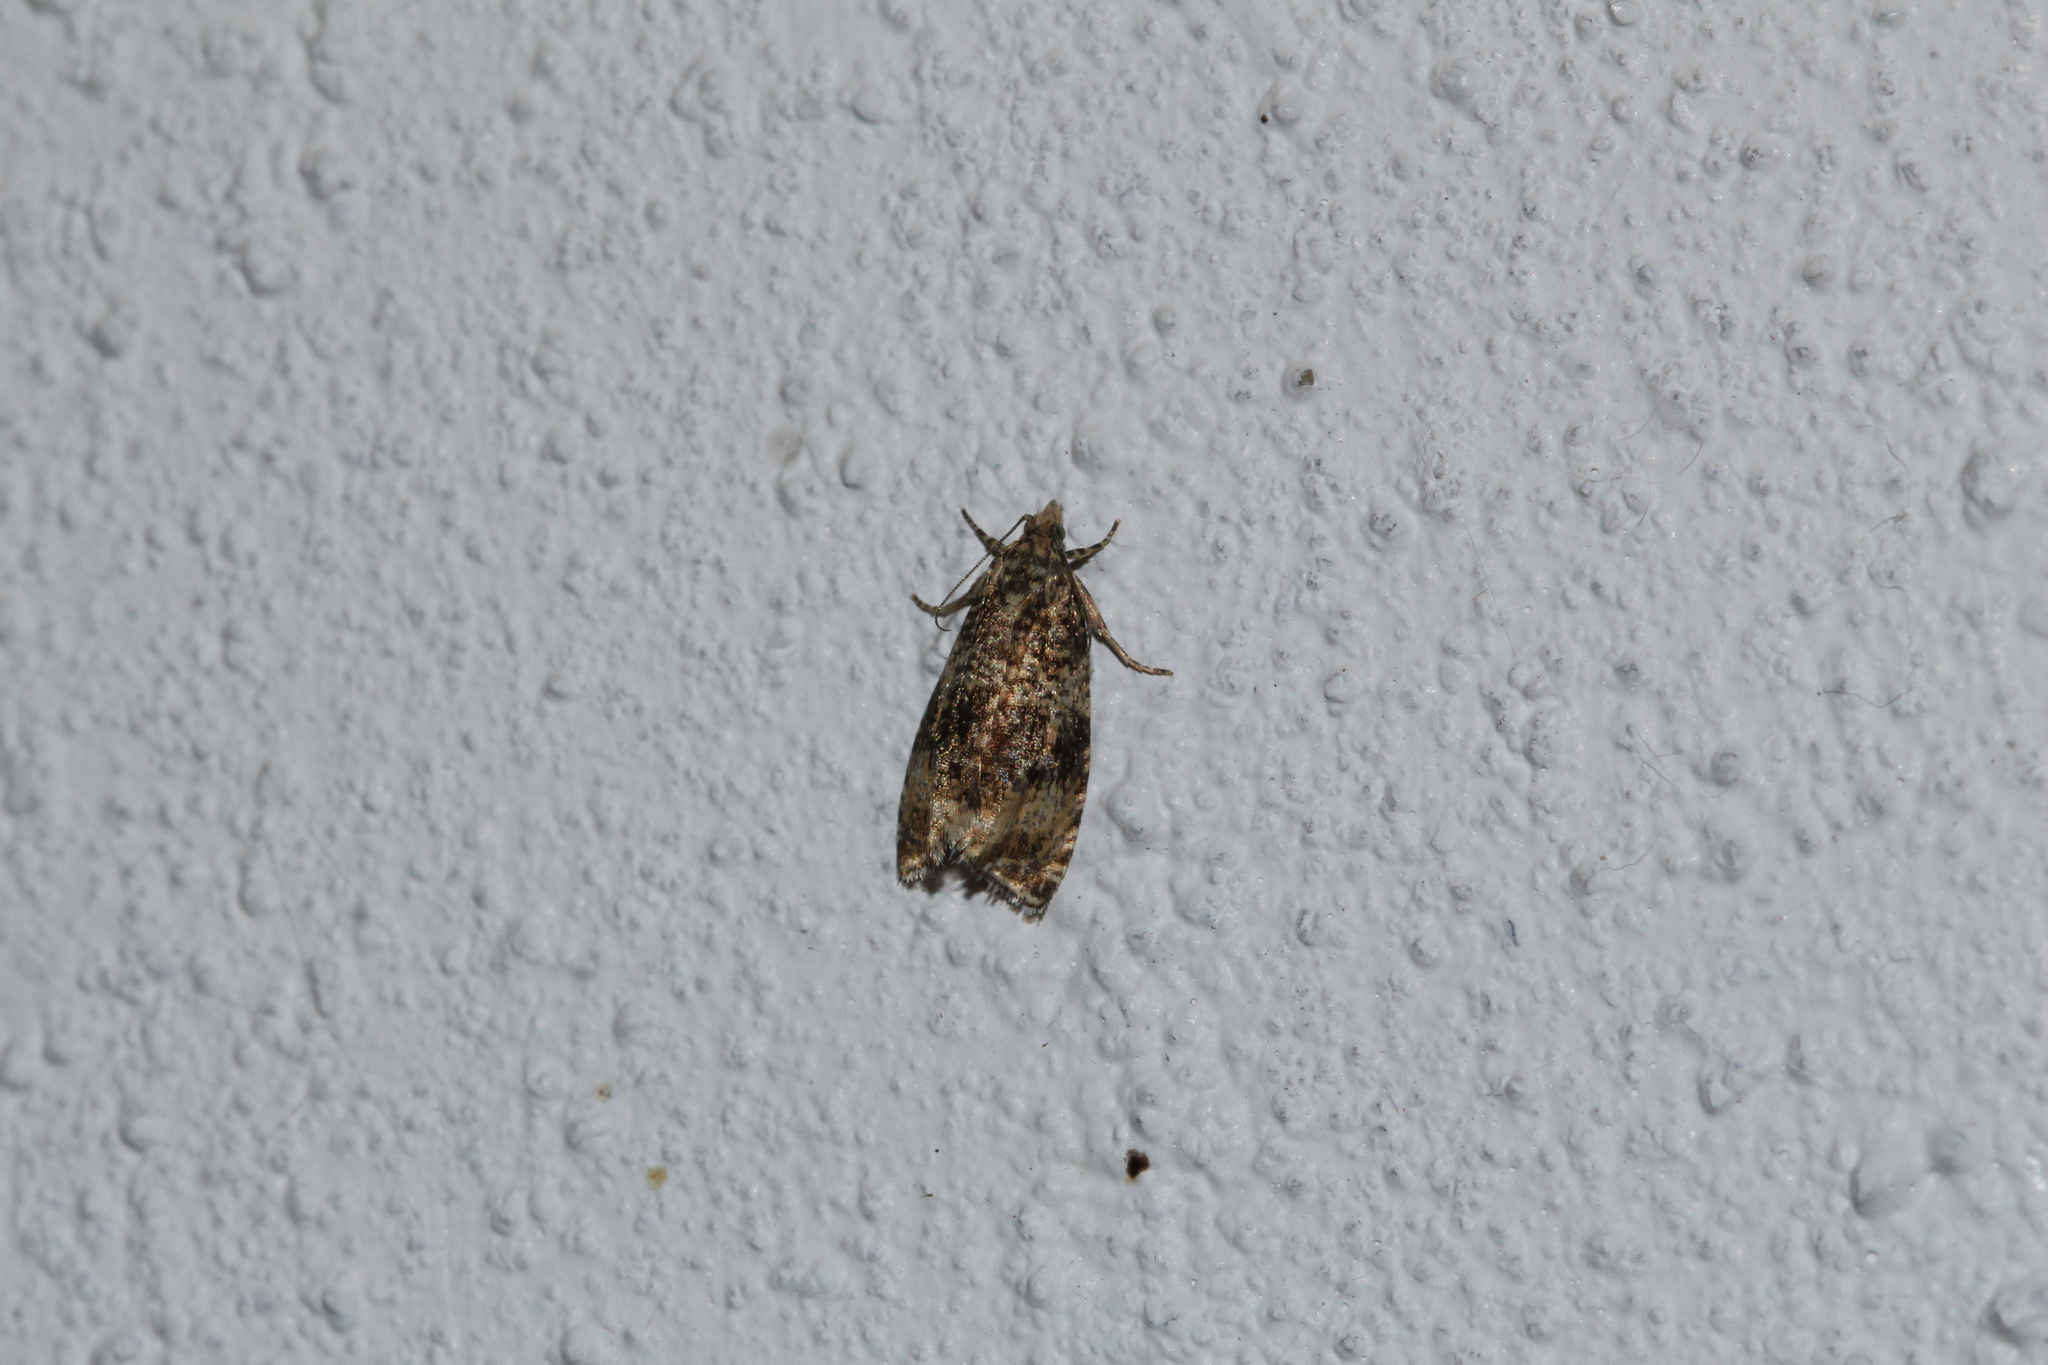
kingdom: Animalia
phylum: Arthropoda
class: Insecta
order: Lepidoptera
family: Tortricidae
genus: Syricoris
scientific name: Syricoris lacunana
